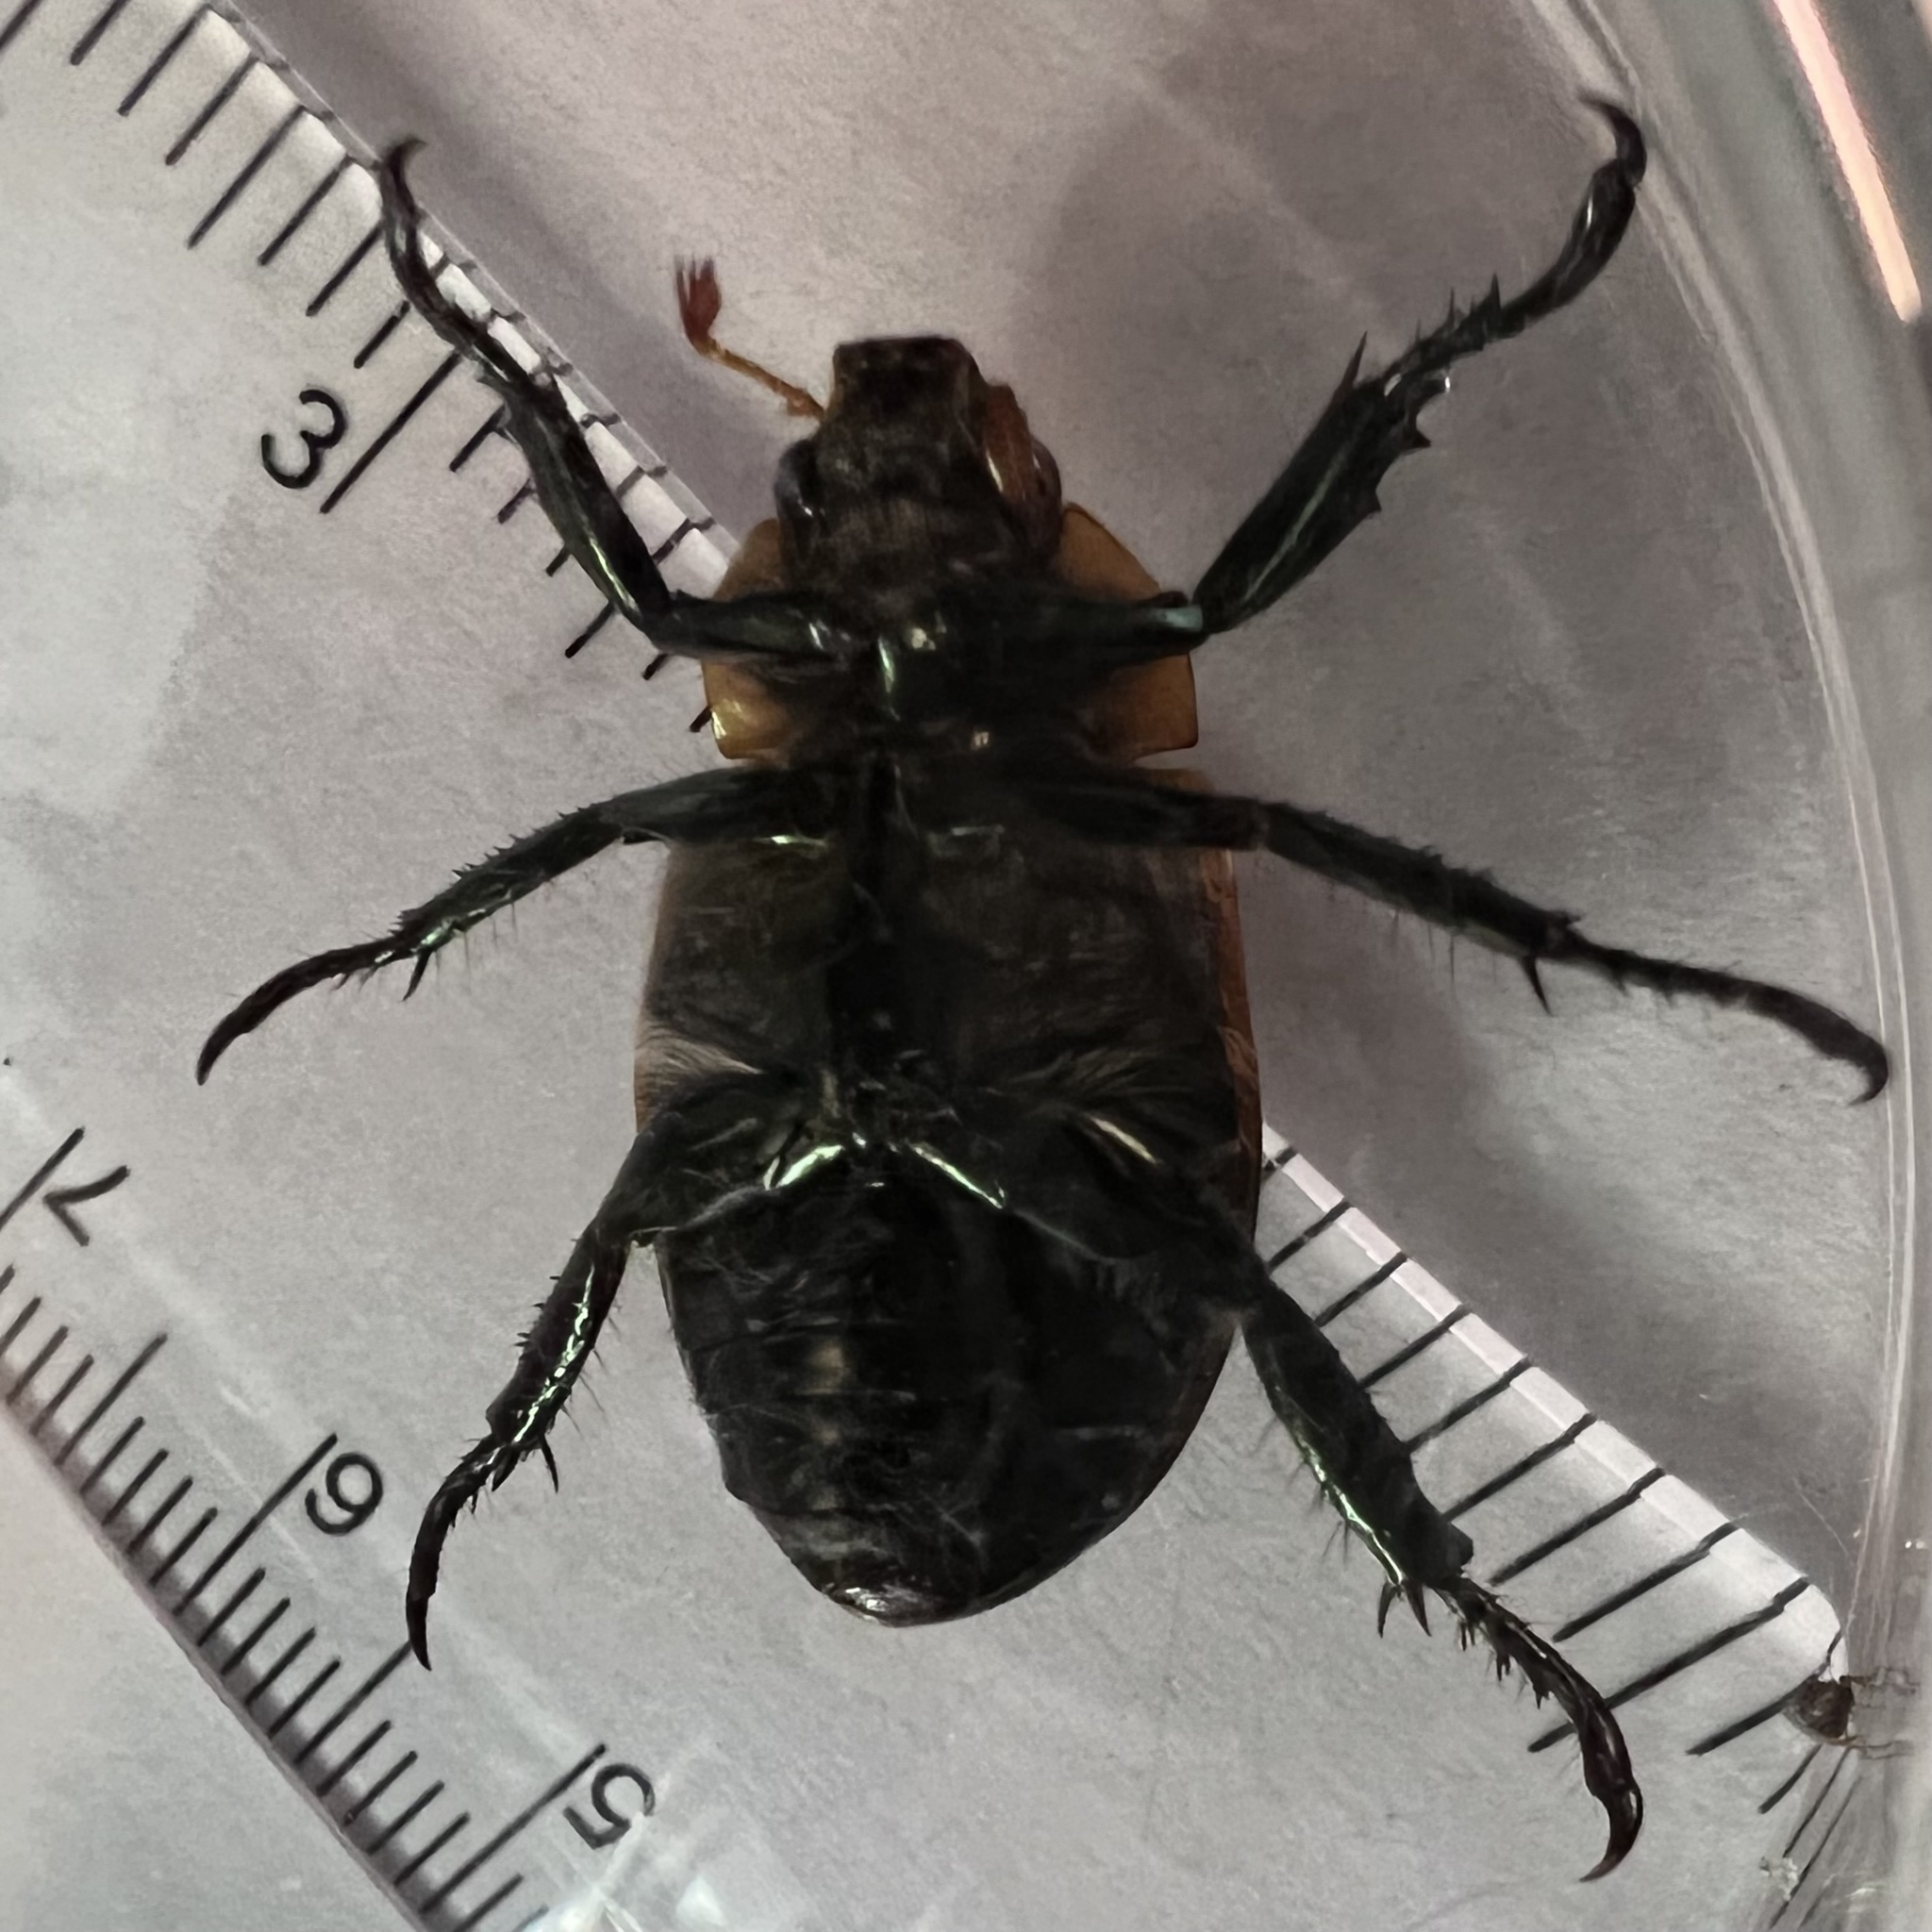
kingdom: Animalia
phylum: Arthropoda
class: Insecta
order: Coleoptera
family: Scarabaeidae
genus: Pelidnota
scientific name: Pelidnota punctata
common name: Grapevine beetle
